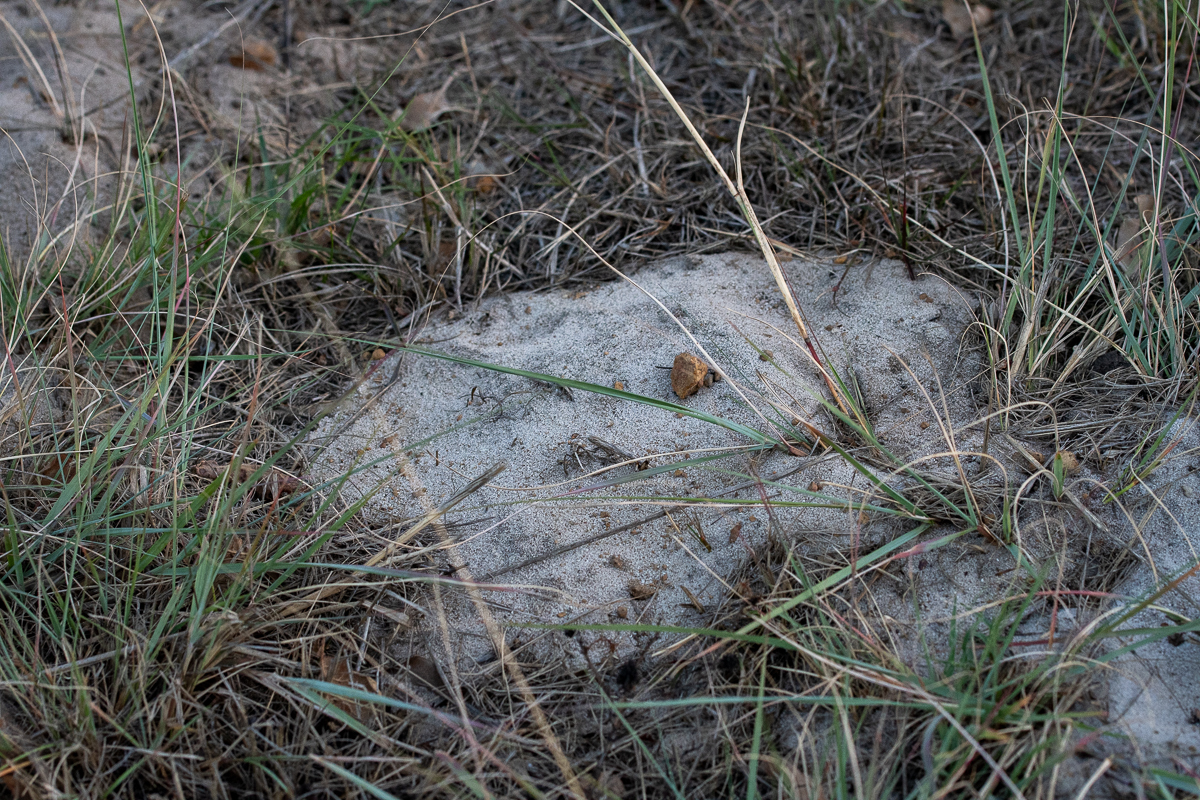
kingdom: Animalia
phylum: Chordata
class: Mammalia
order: Rodentia
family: Bathyergidae
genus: Bathyergus
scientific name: Bathyergus suillus
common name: Cape dune mole rat
